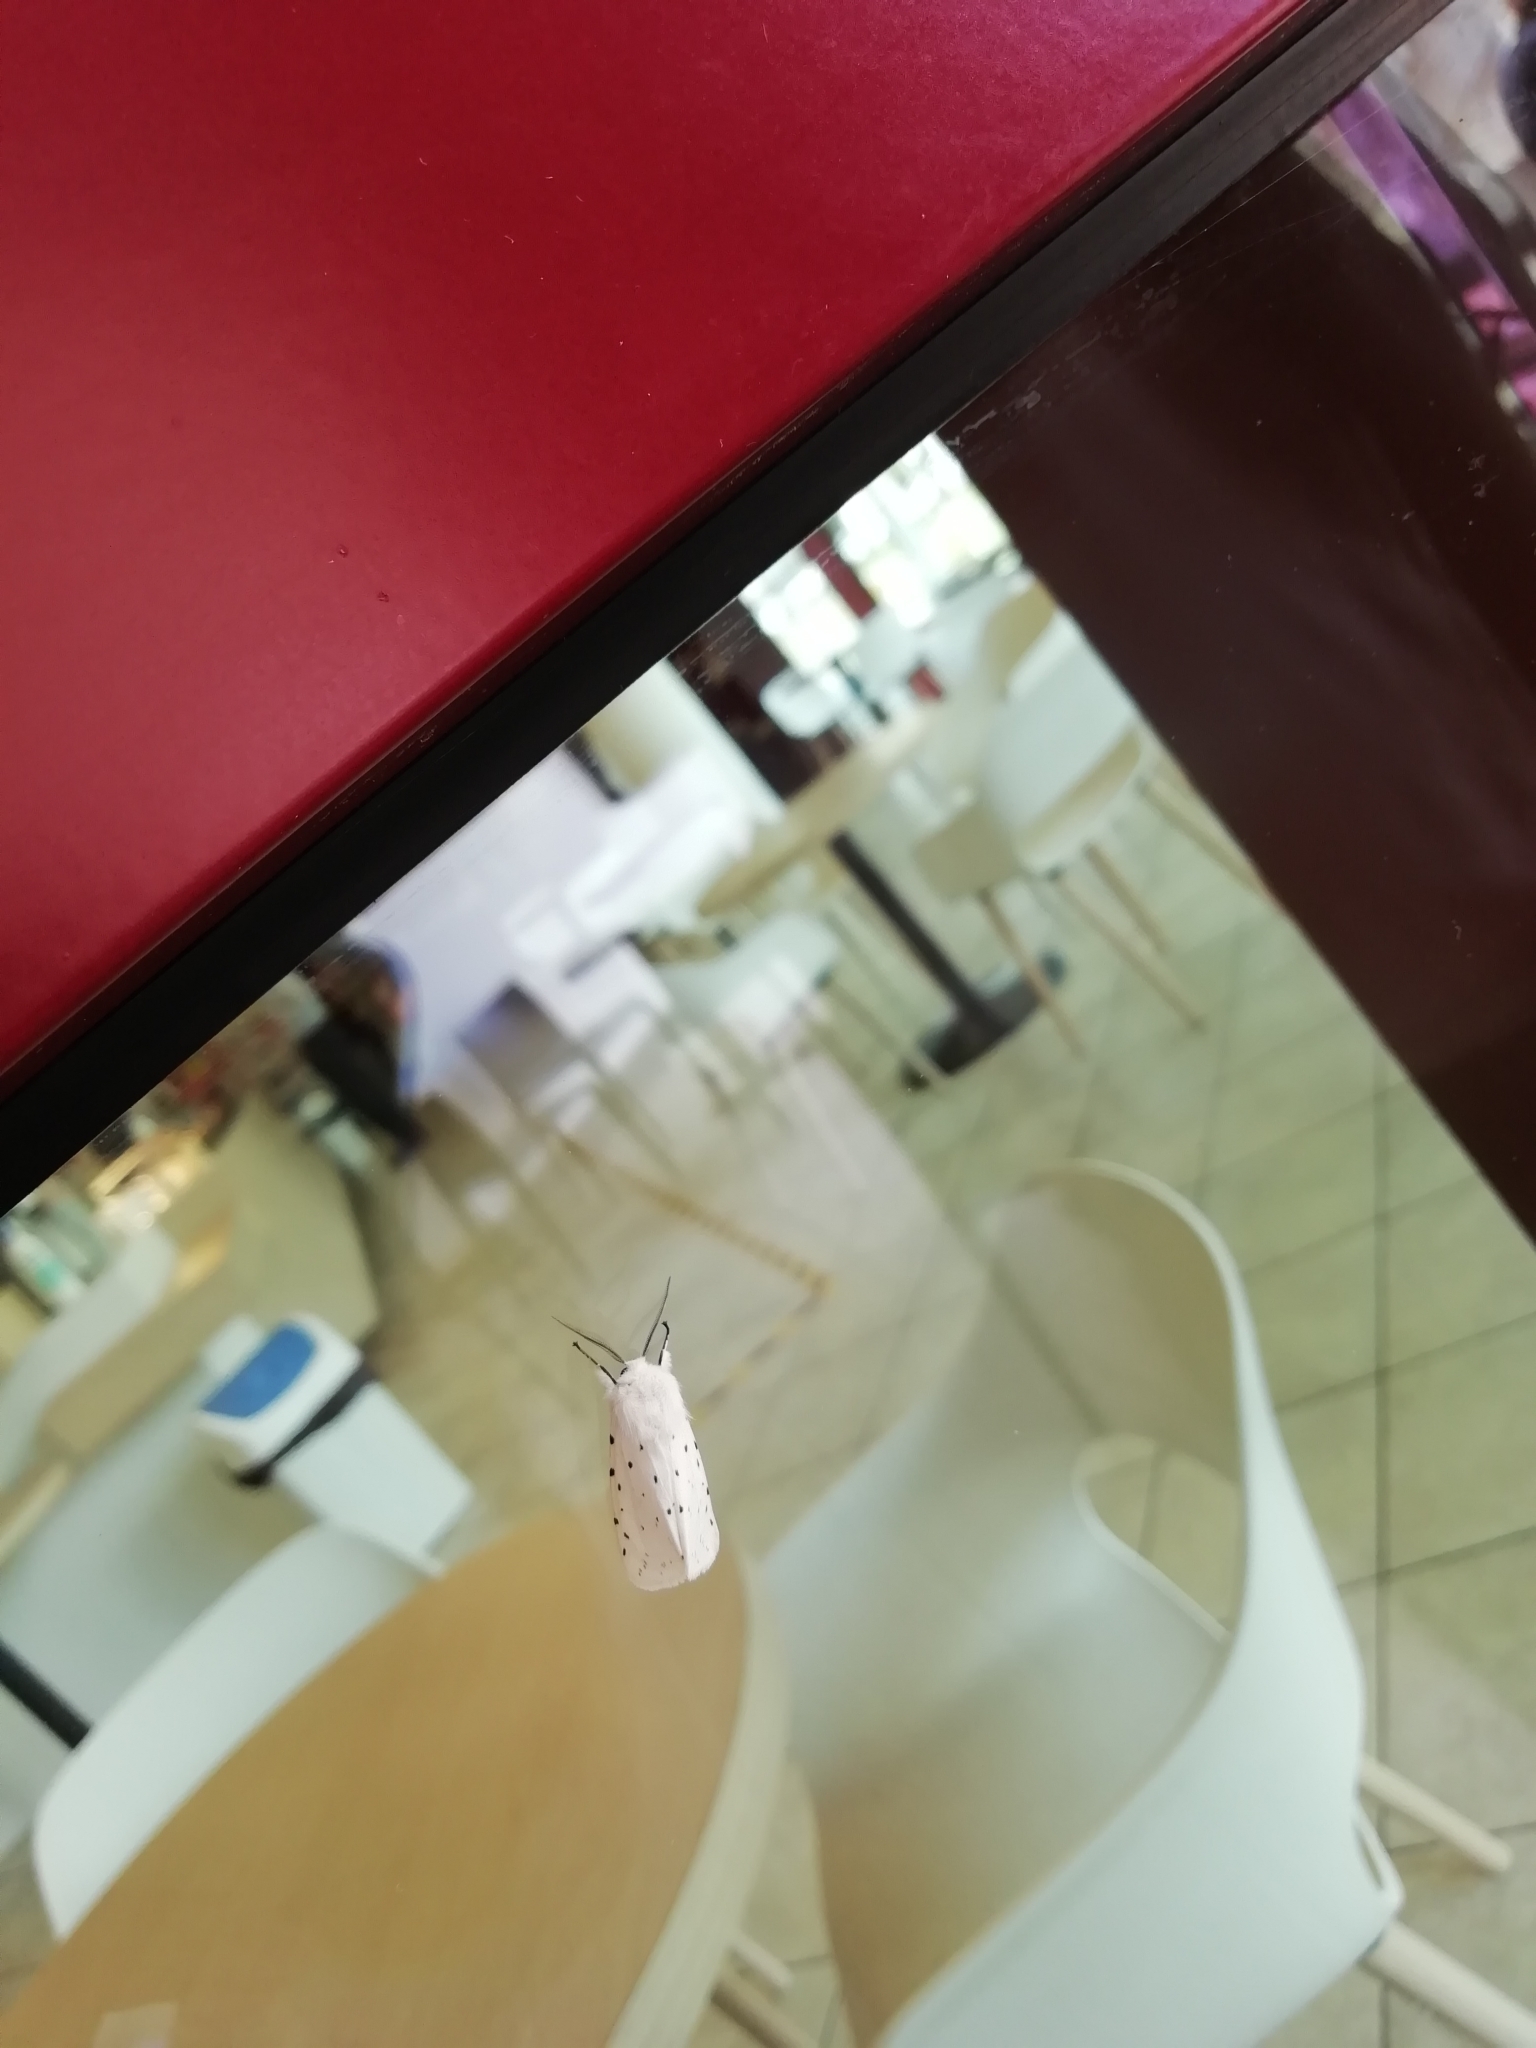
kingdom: Animalia
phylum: Arthropoda
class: Insecta
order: Lepidoptera
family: Erebidae
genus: Spilosoma
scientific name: Spilosoma lubricipeda
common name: White ermine
